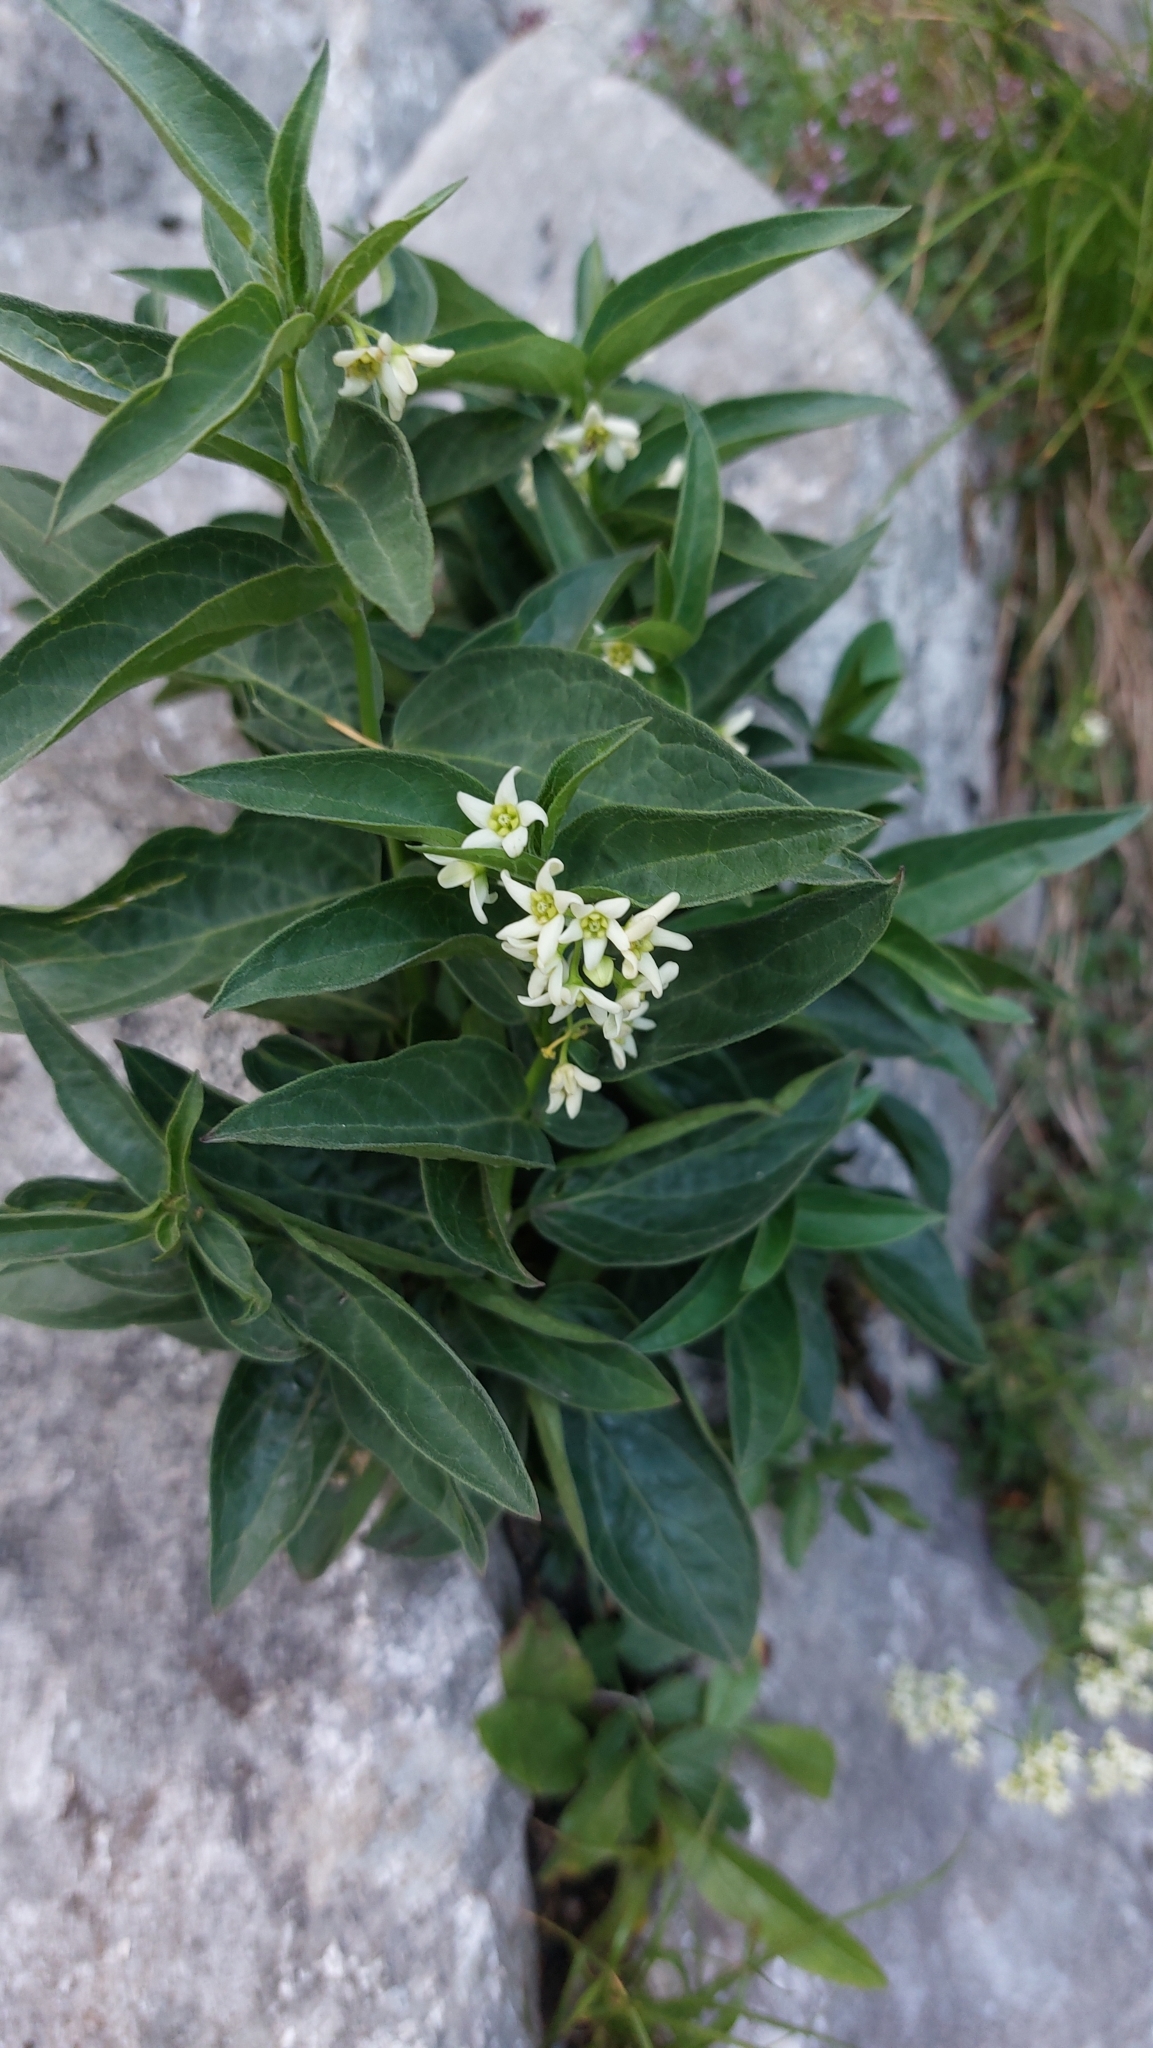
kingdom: Plantae
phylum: Tracheophyta
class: Magnoliopsida
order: Gentianales
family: Apocynaceae
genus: Vincetoxicum
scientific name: Vincetoxicum hirundinaria
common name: White swallowwort
